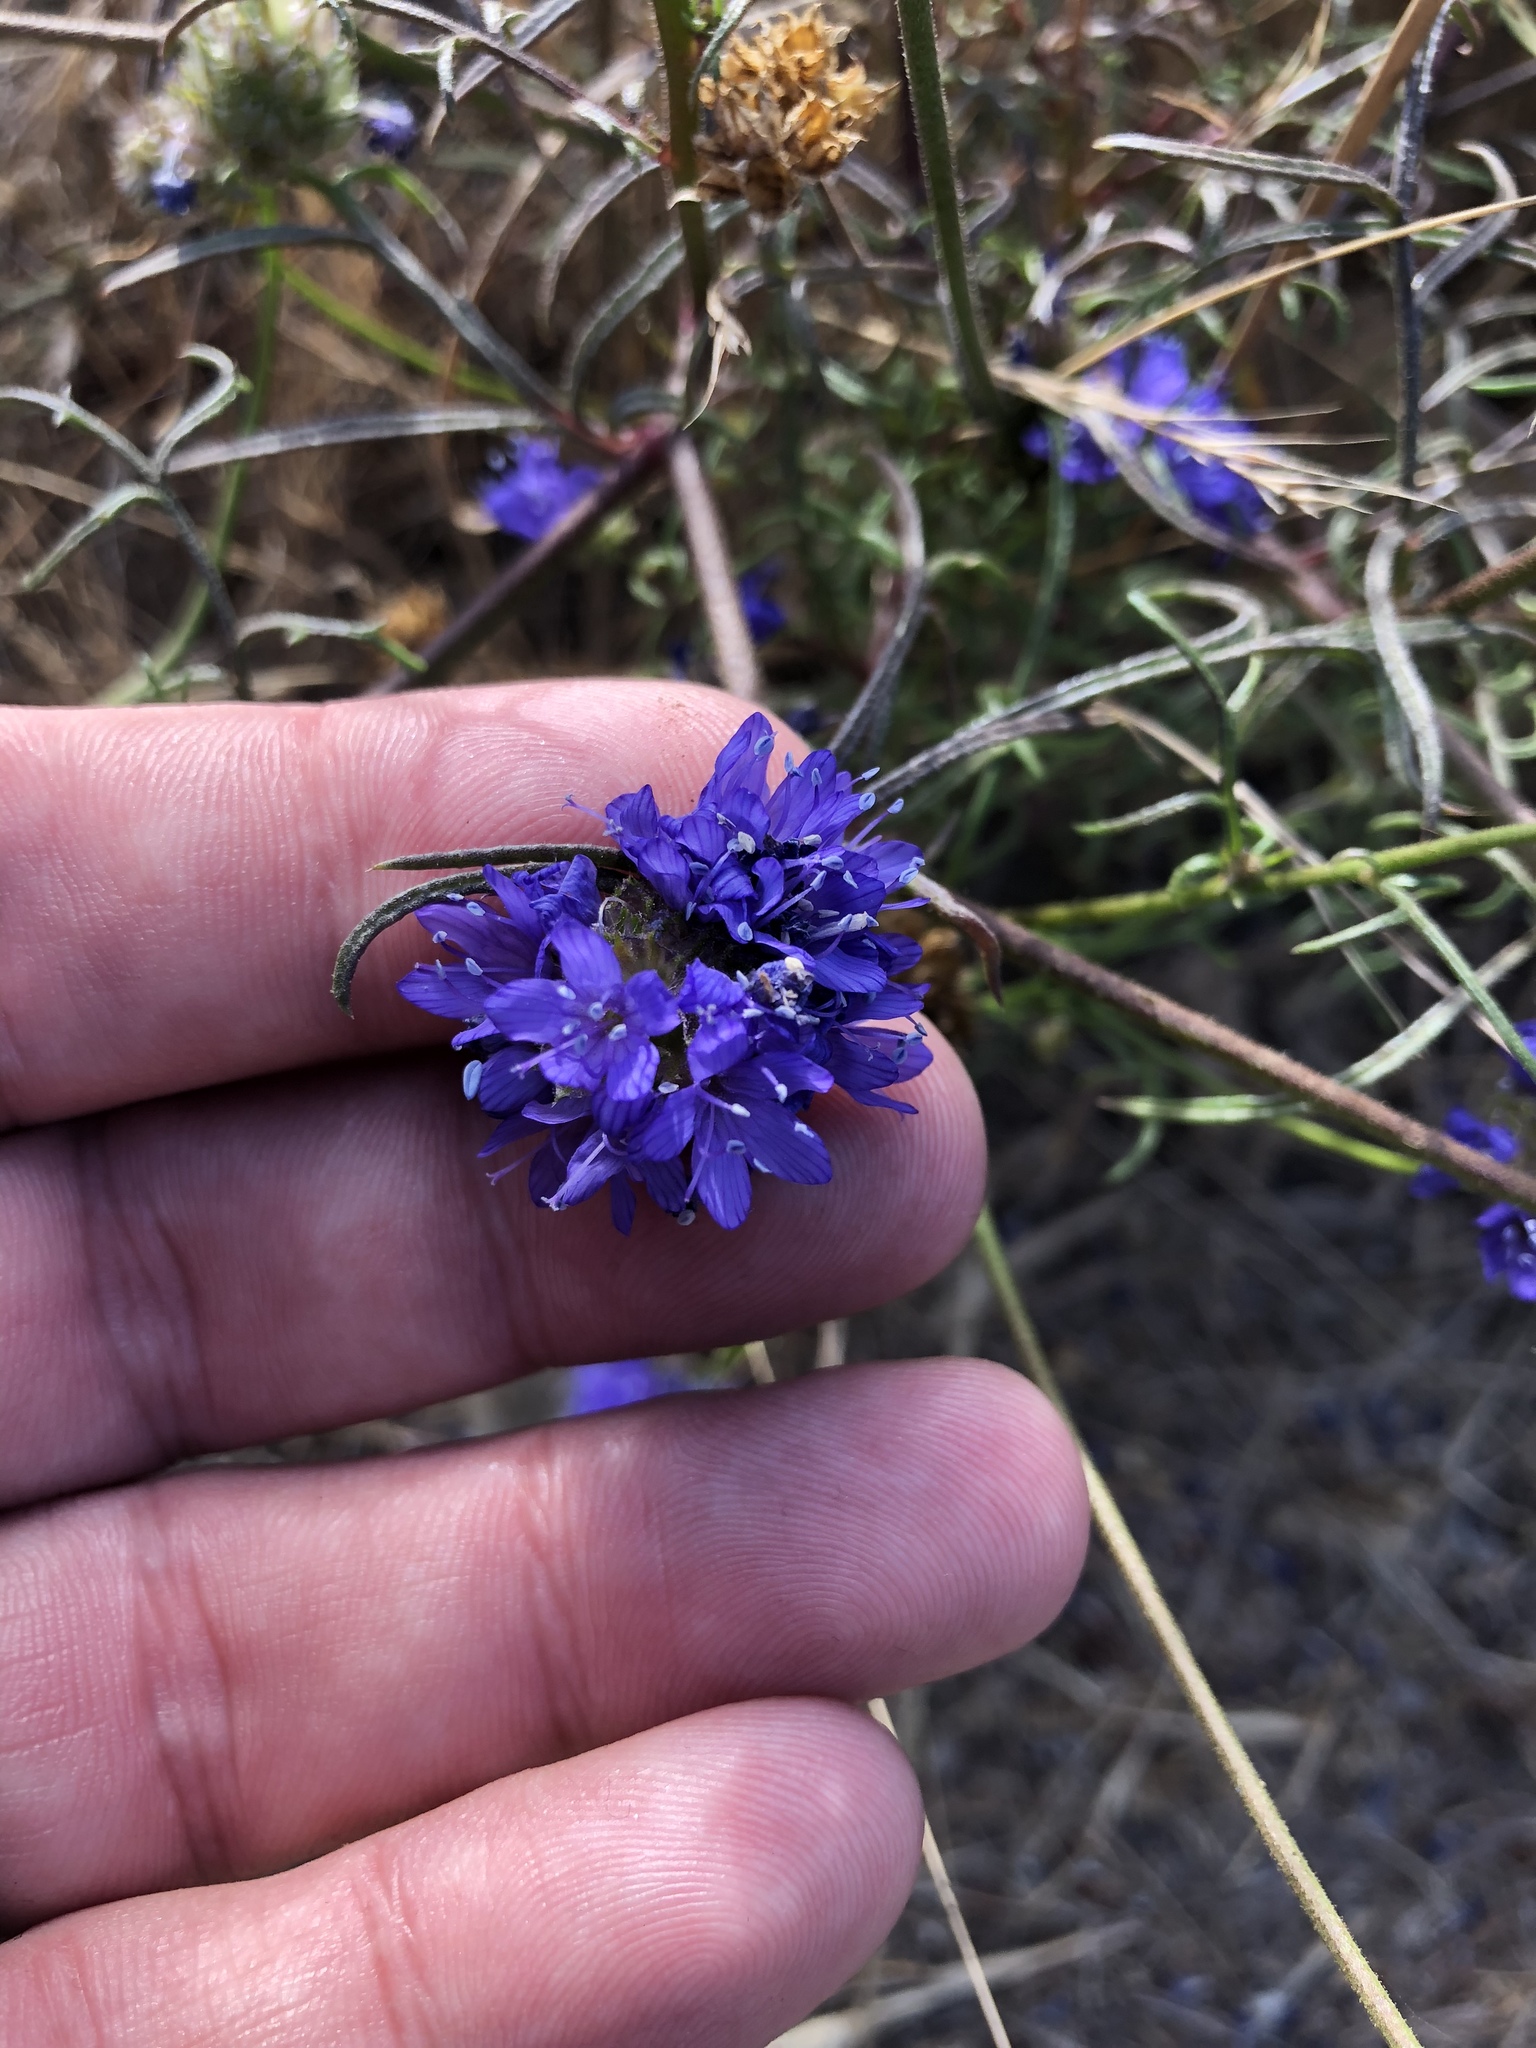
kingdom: Plantae
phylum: Tracheophyta
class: Magnoliopsida
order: Ericales
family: Polemoniaceae
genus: Gilia
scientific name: Gilia capitata
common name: Bluehead gilia
